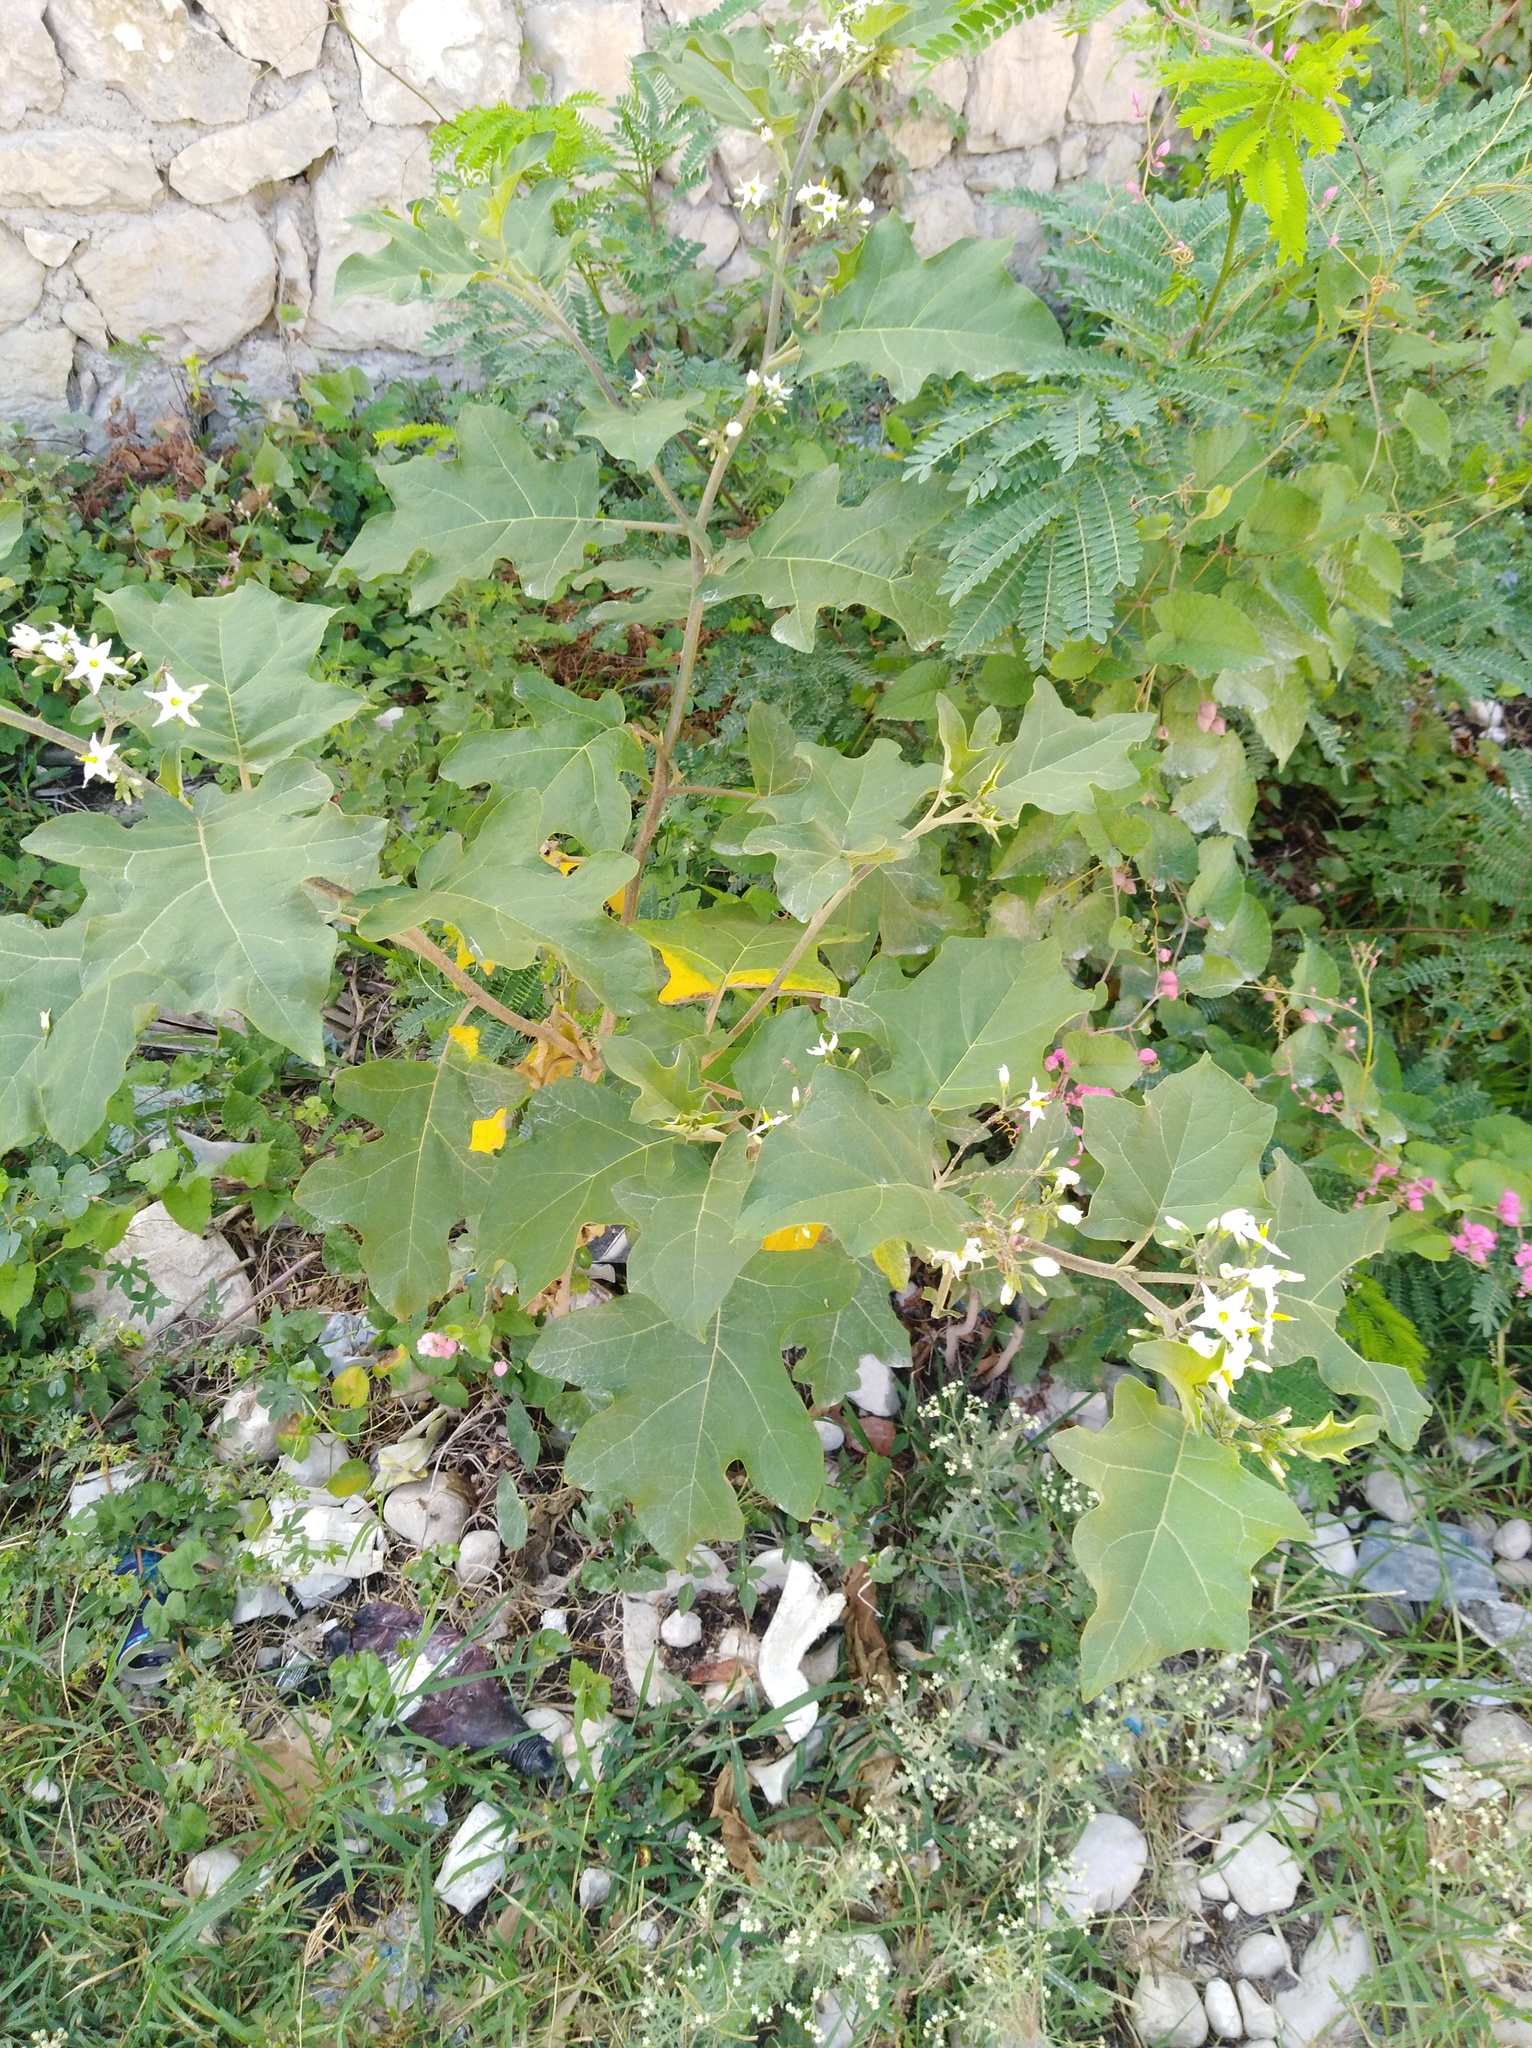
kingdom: Plantae
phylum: Tracheophyta
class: Magnoliopsida
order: Solanales
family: Solanaceae
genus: Solanum
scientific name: Solanum torvum
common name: Turkey berry
